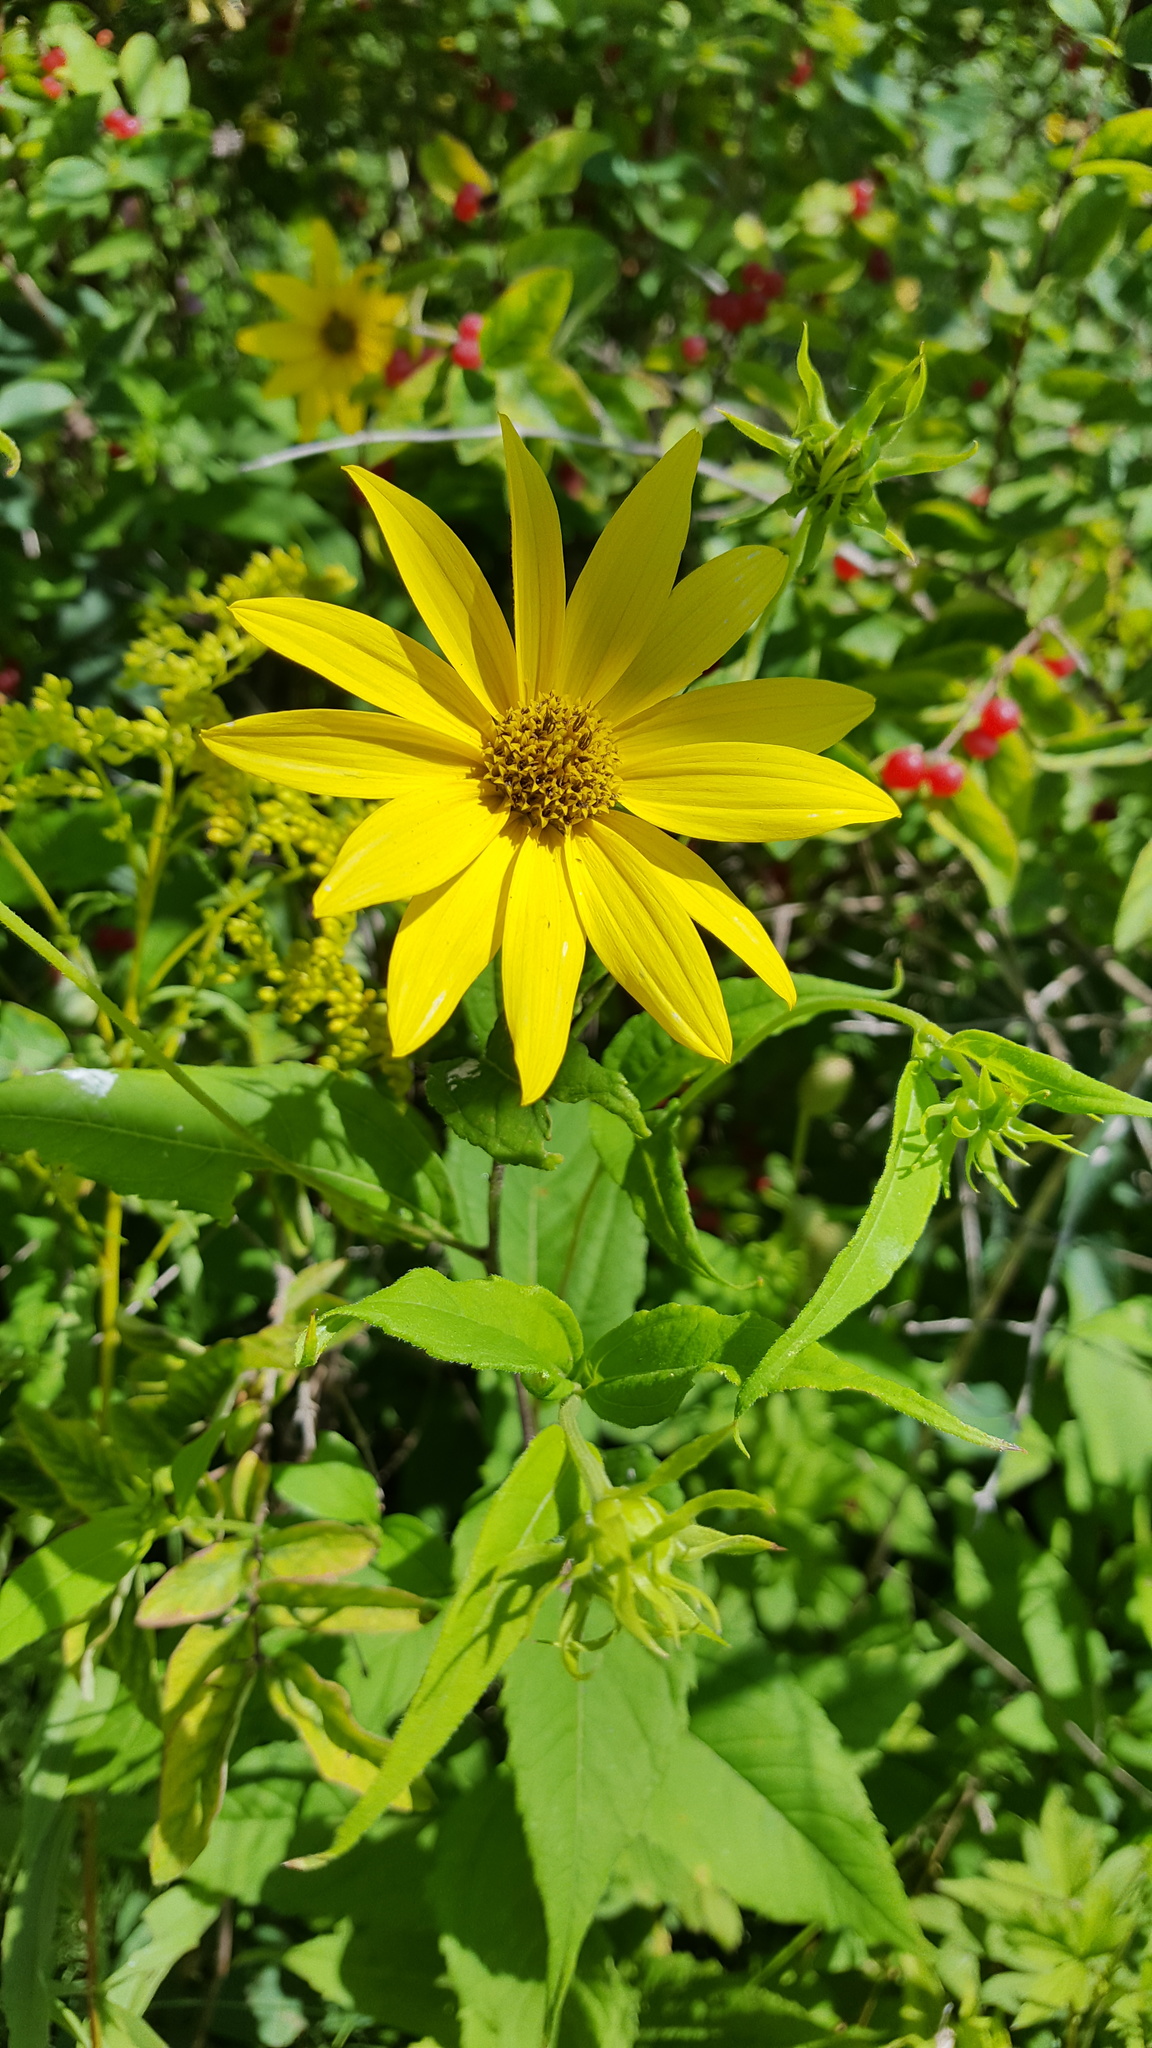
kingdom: Plantae
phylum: Tracheophyta
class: Magnoliopsida
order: Asterales
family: Asteraceae
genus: Heliopsis
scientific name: Heliopsis helianthoides
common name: False sunflower
